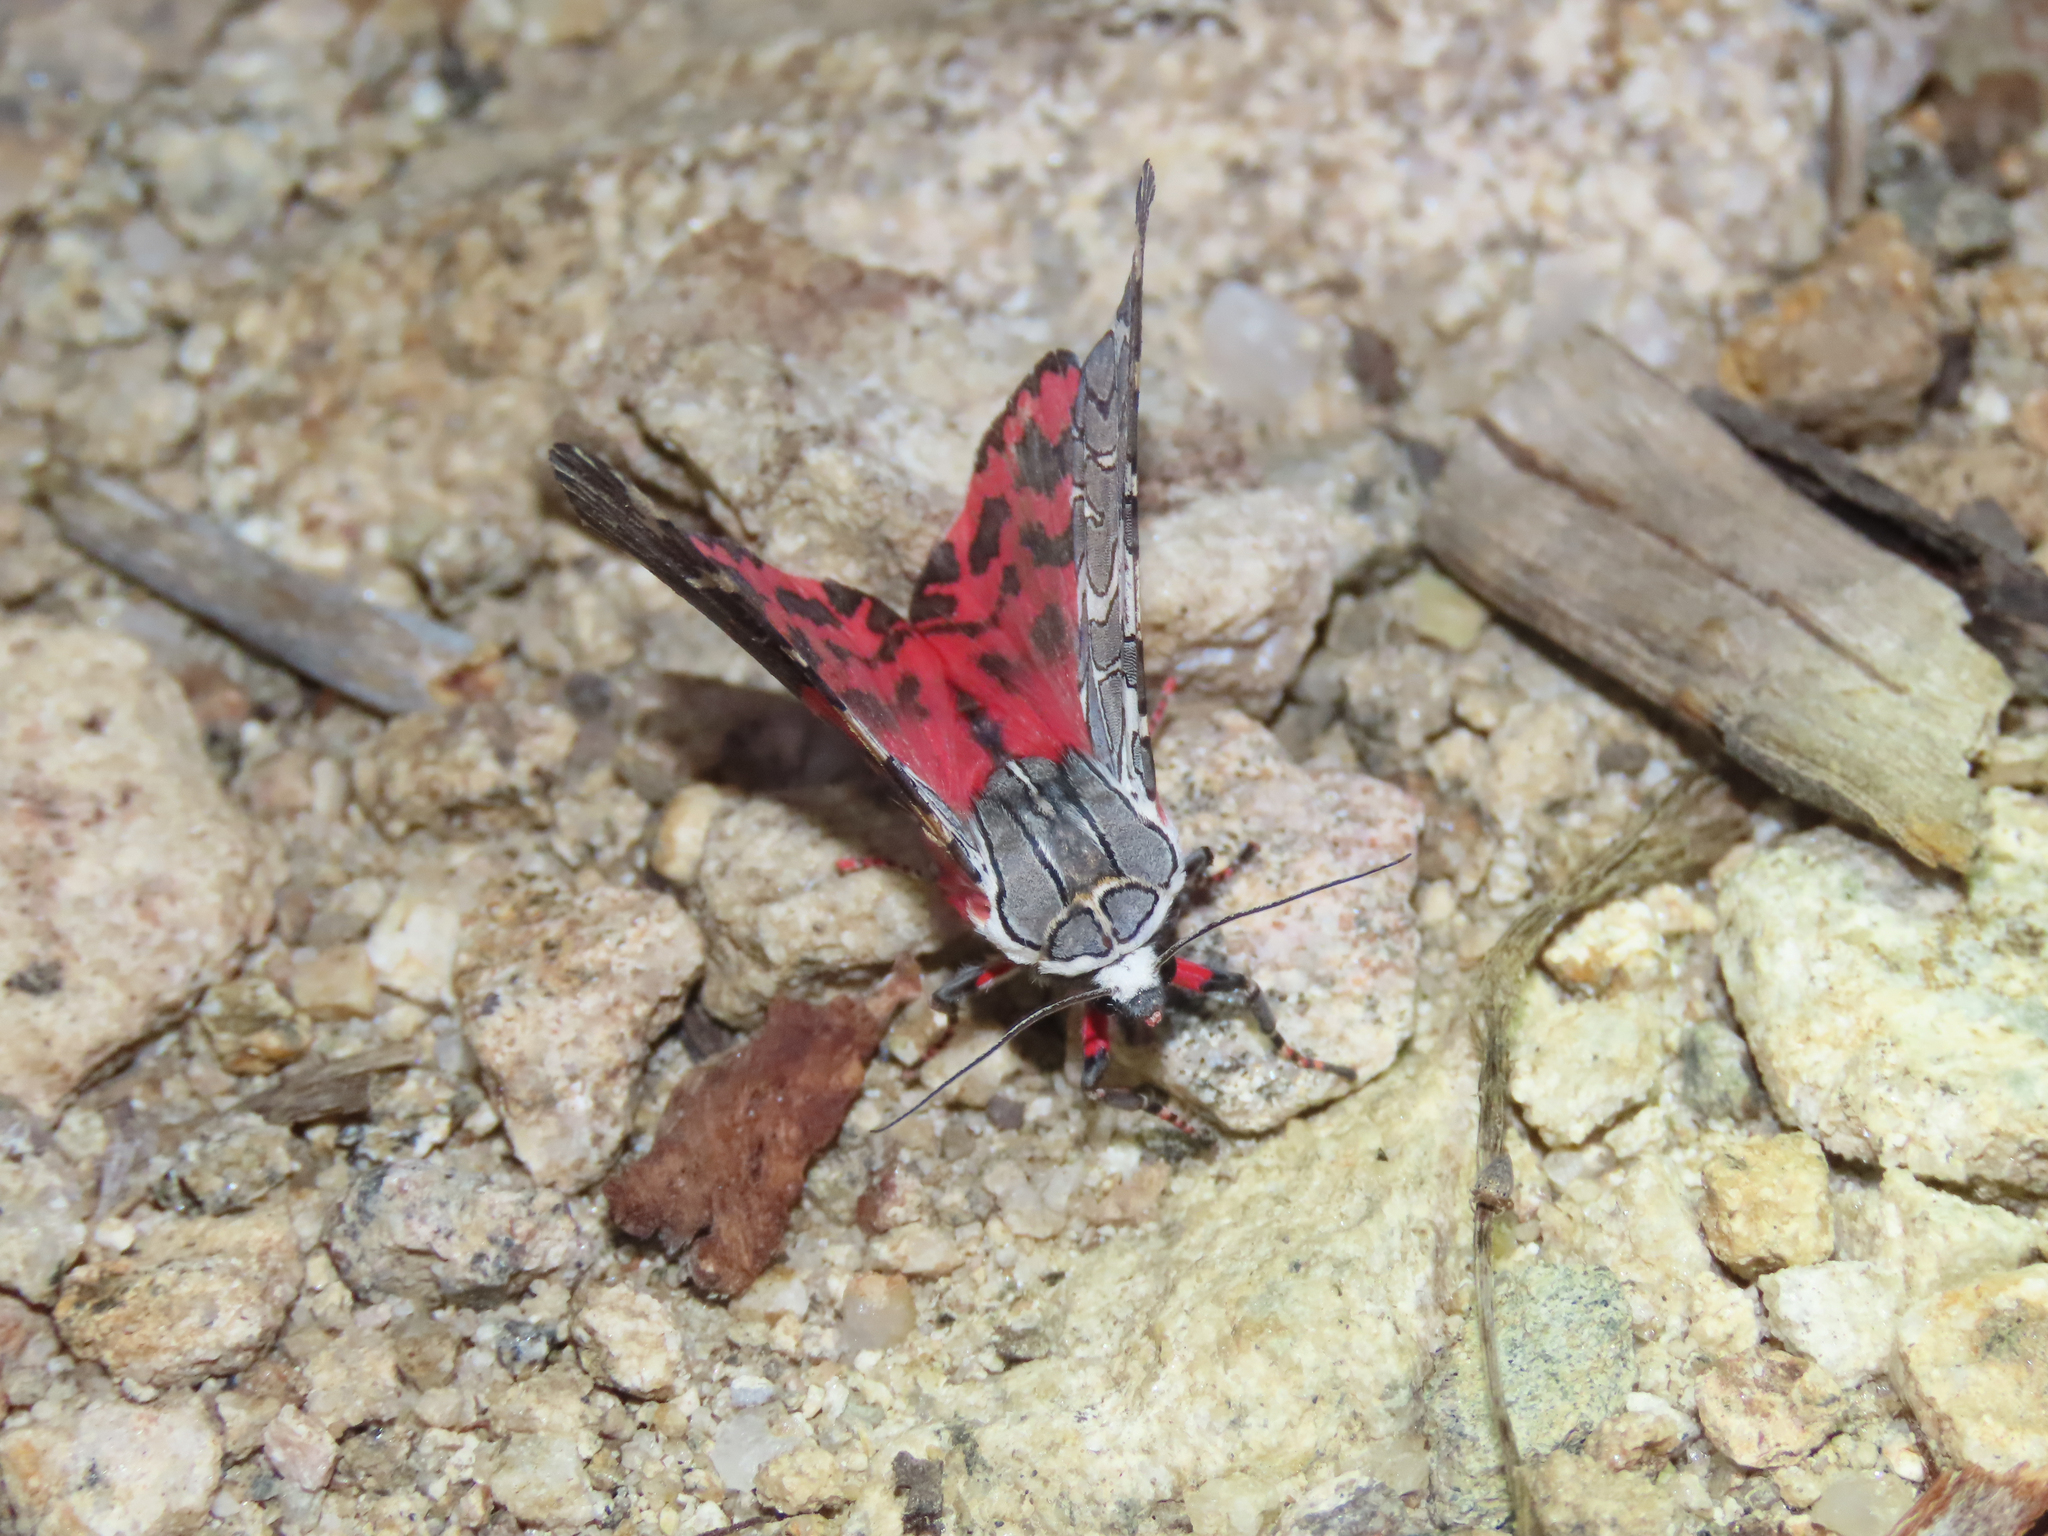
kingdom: Animalia
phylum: Arthropoda
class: Insecta
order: Lepidoptera
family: Erebidae
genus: Arachnis
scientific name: Arachnis picta
